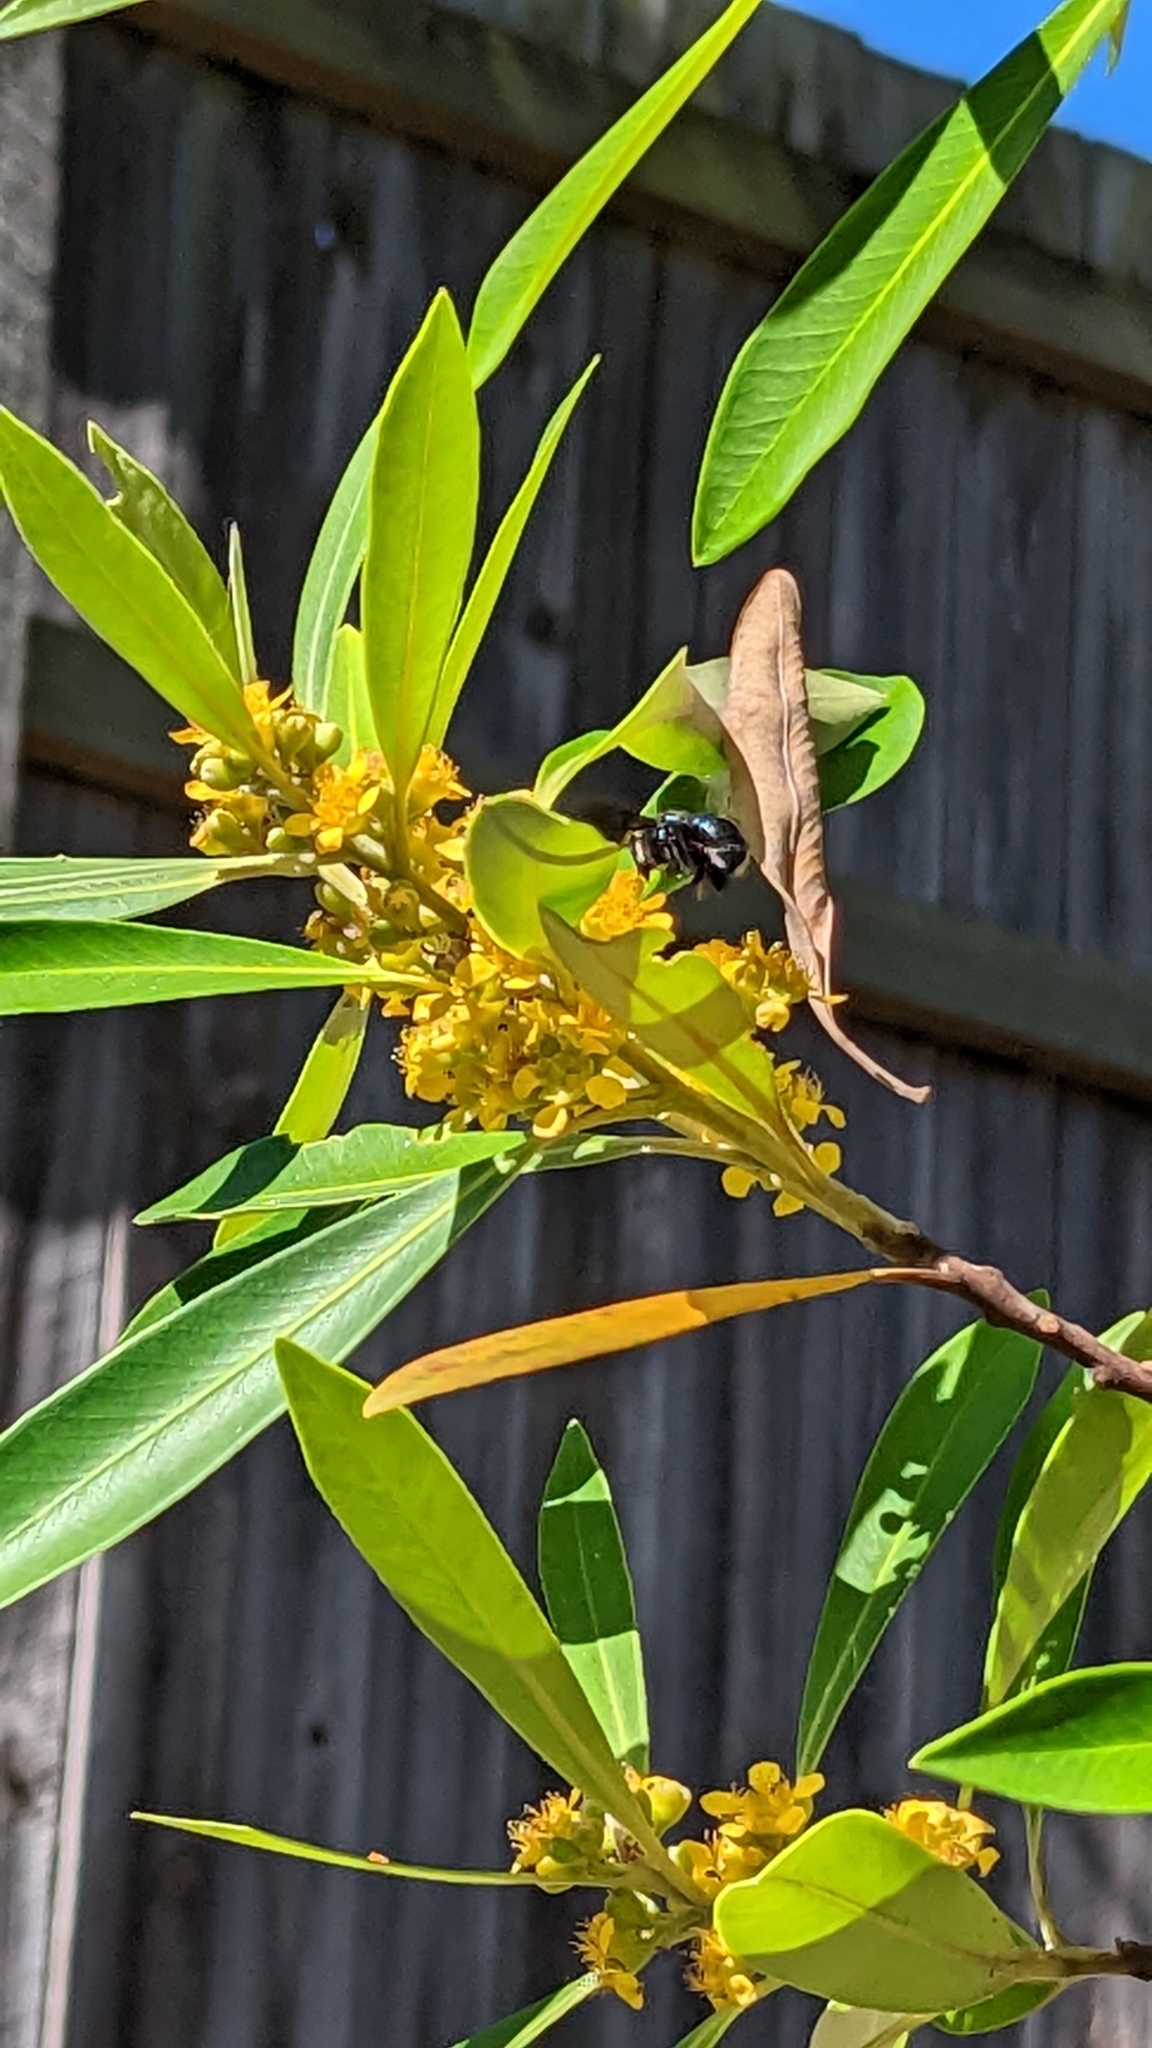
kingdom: Animalia
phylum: Arthropoda
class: Insecta
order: Hymenoptera
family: Apidae
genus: Xylocopa
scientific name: Xylocopa bombylans
